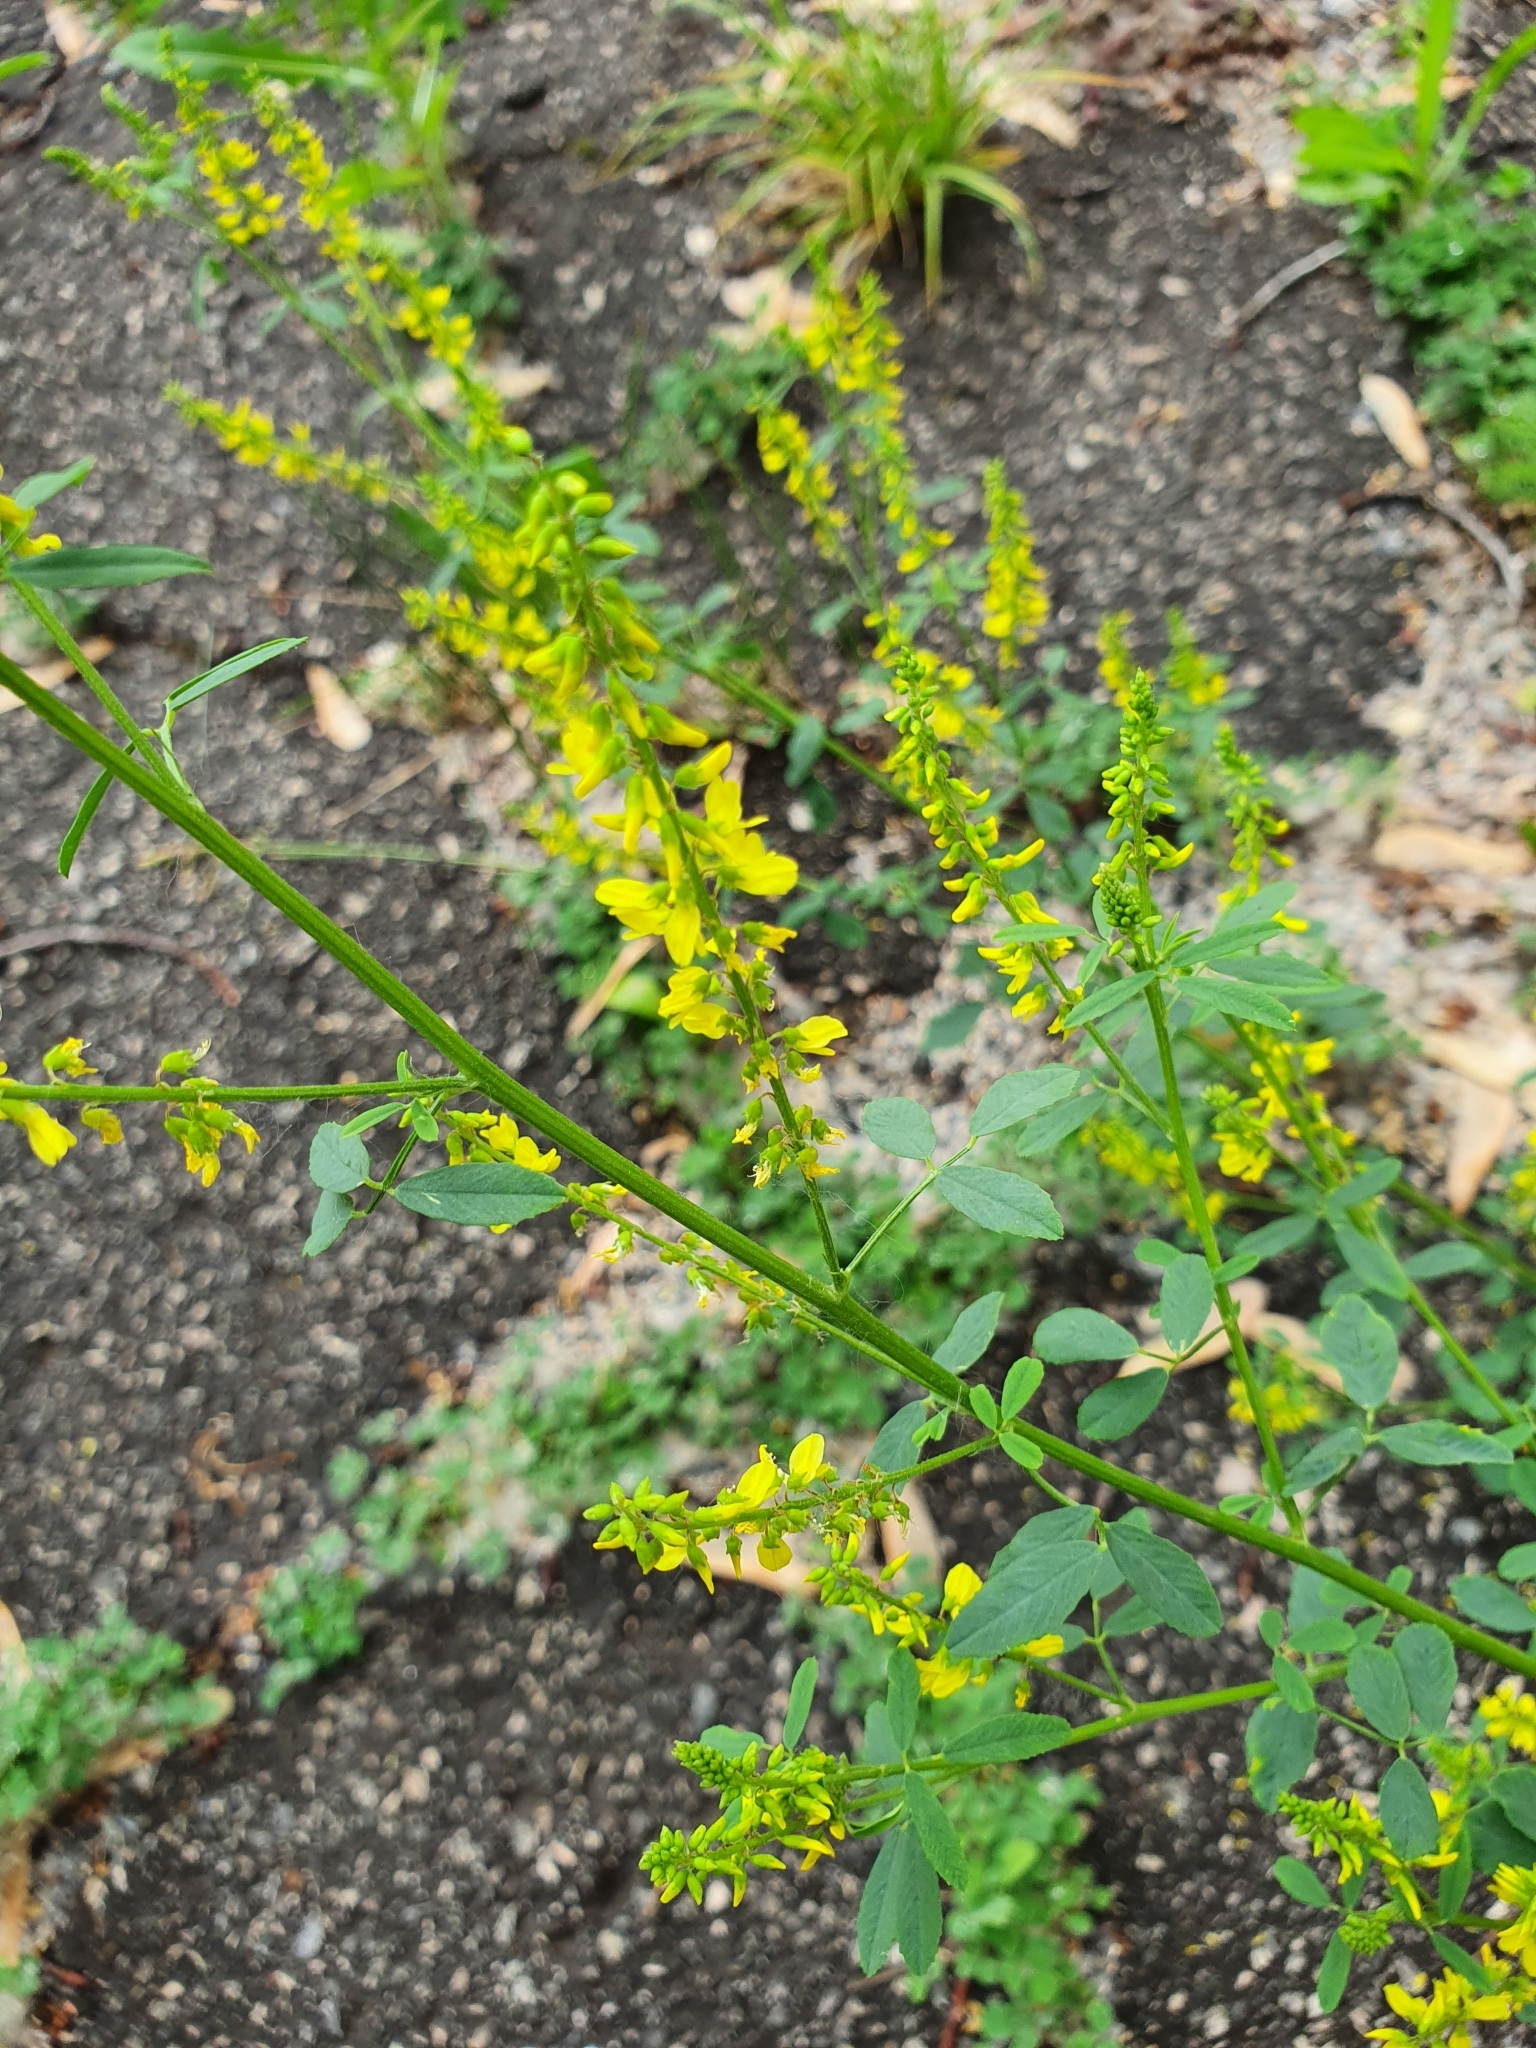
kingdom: Plantae
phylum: Tracheophyta
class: Magnoliopsida
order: Fabales
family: Fabaceae
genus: Melilotus
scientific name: Melilotus officinalis
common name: Sweetclover
